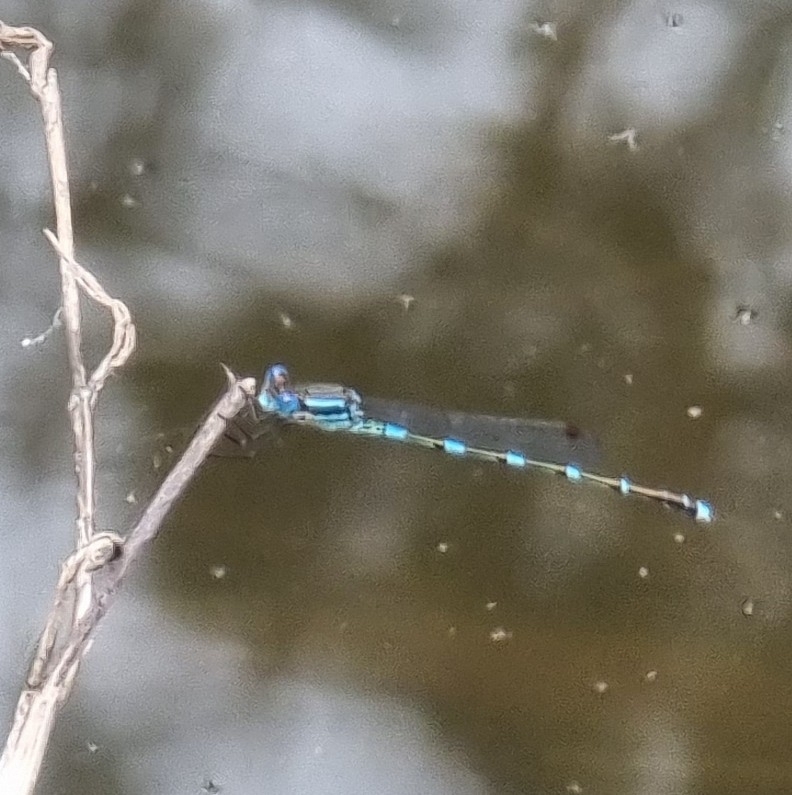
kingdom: Animalia
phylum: Arthropoda
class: Insecta
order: Odonata
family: Lestidae
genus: Austrolestes
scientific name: Austrolestes leda
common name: Wandering ringtail
